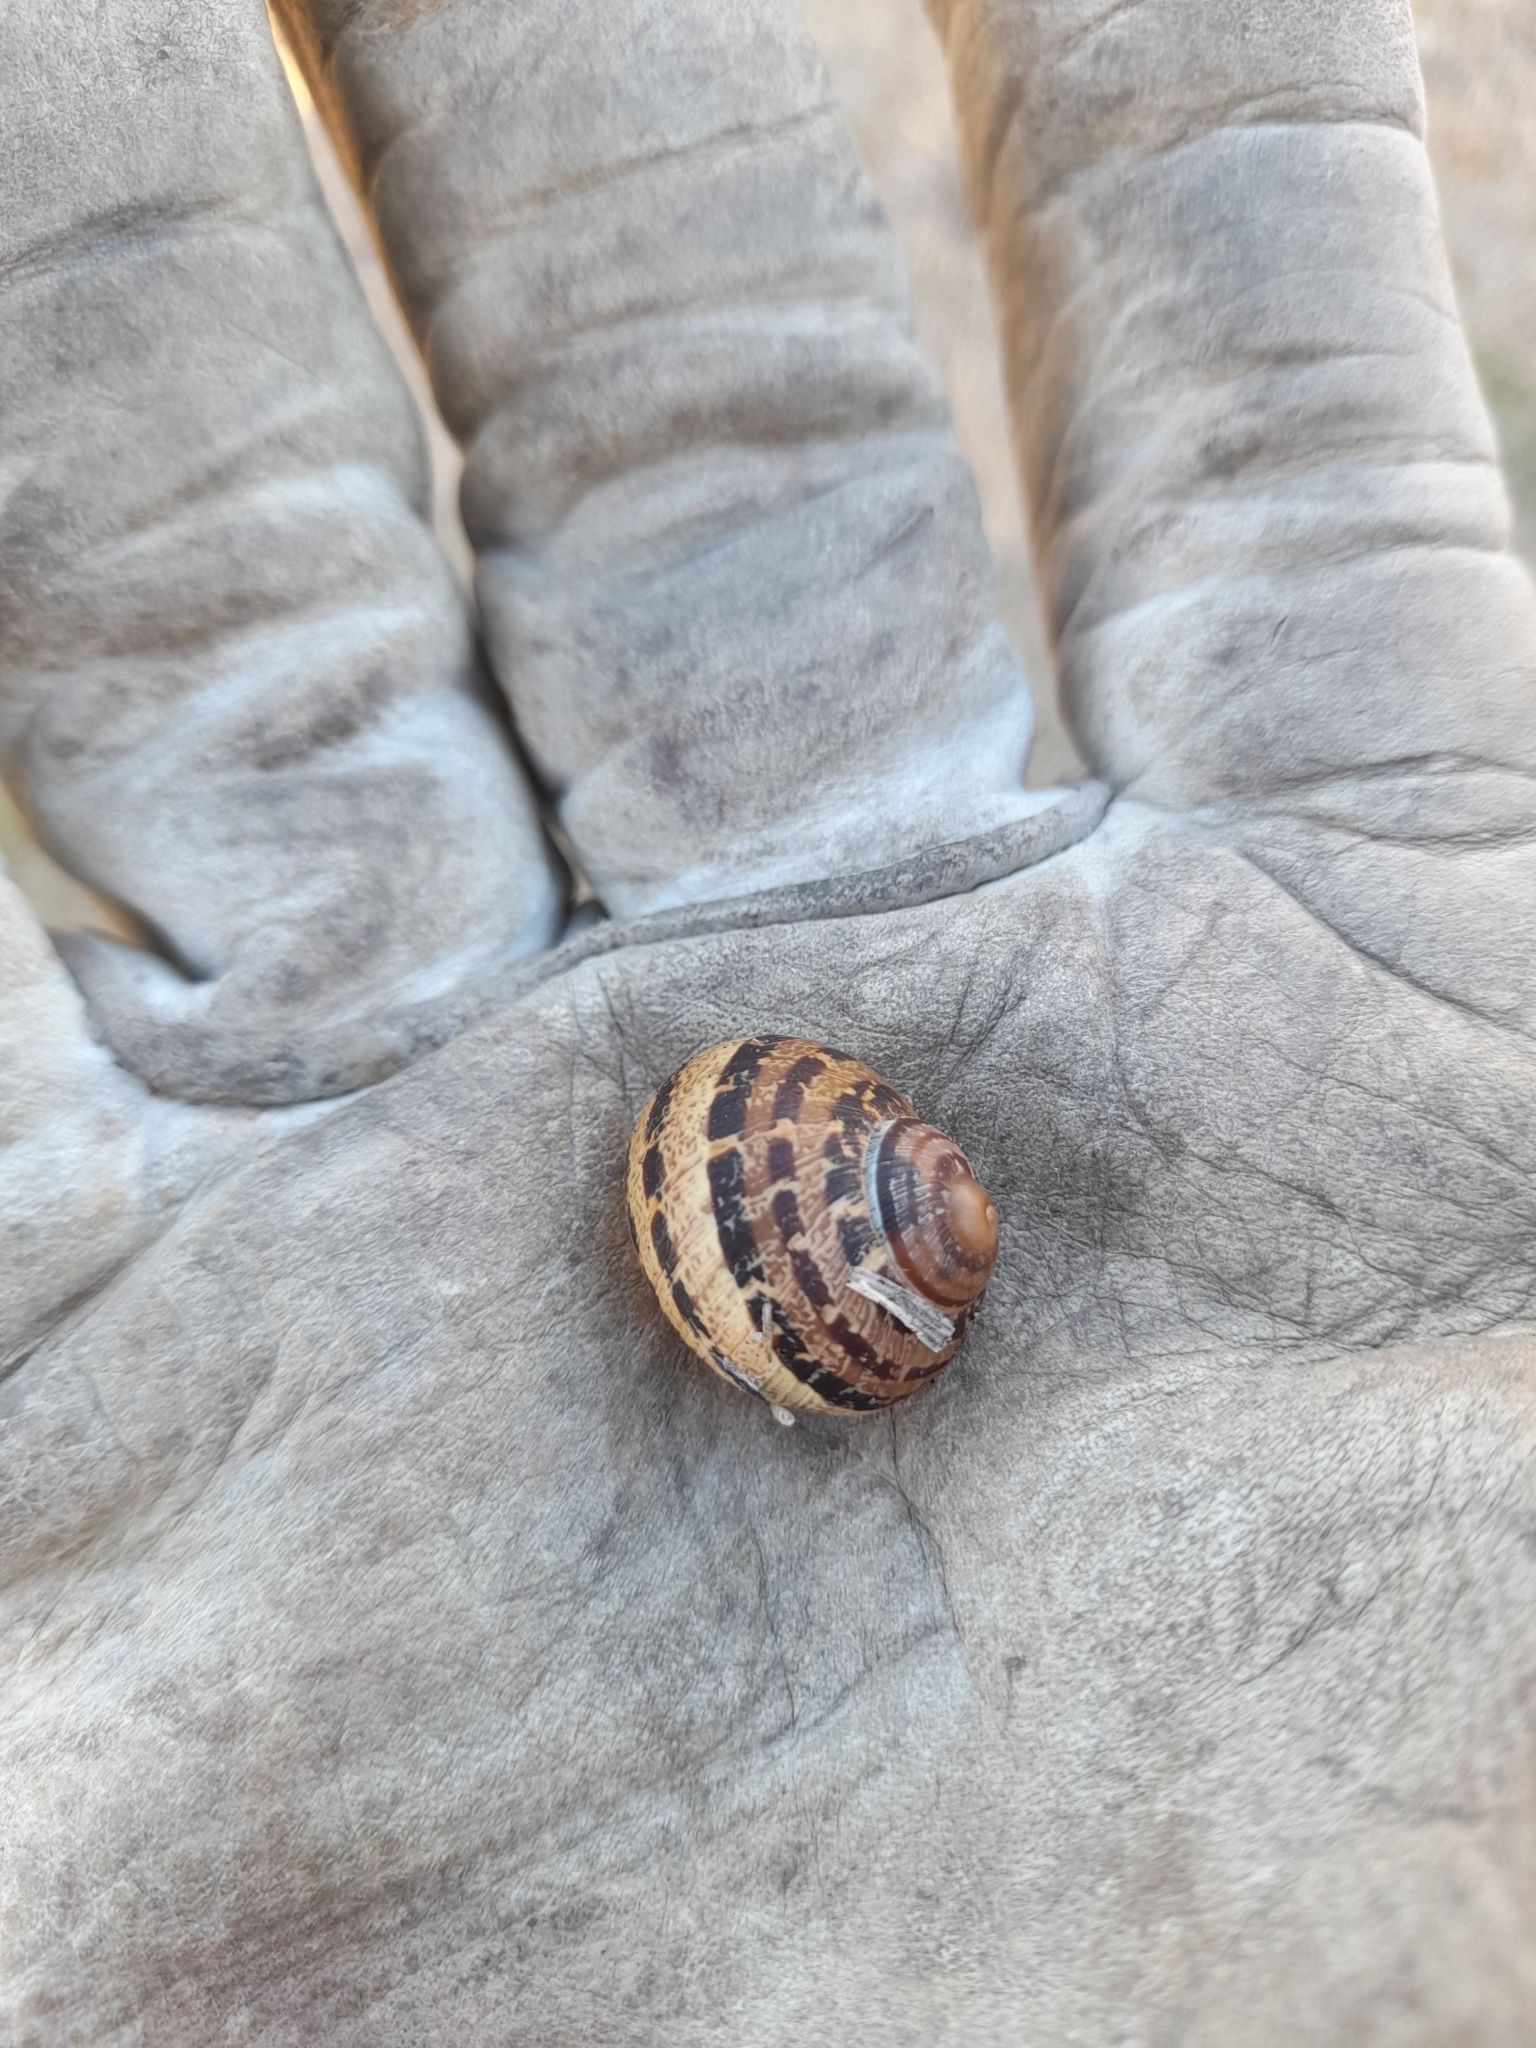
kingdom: Animalia
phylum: Mollusca
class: Gastropoda
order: Stylommatophora
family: Helicidae
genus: Cornu
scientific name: Cornu aspersum
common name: Brown garden snail
